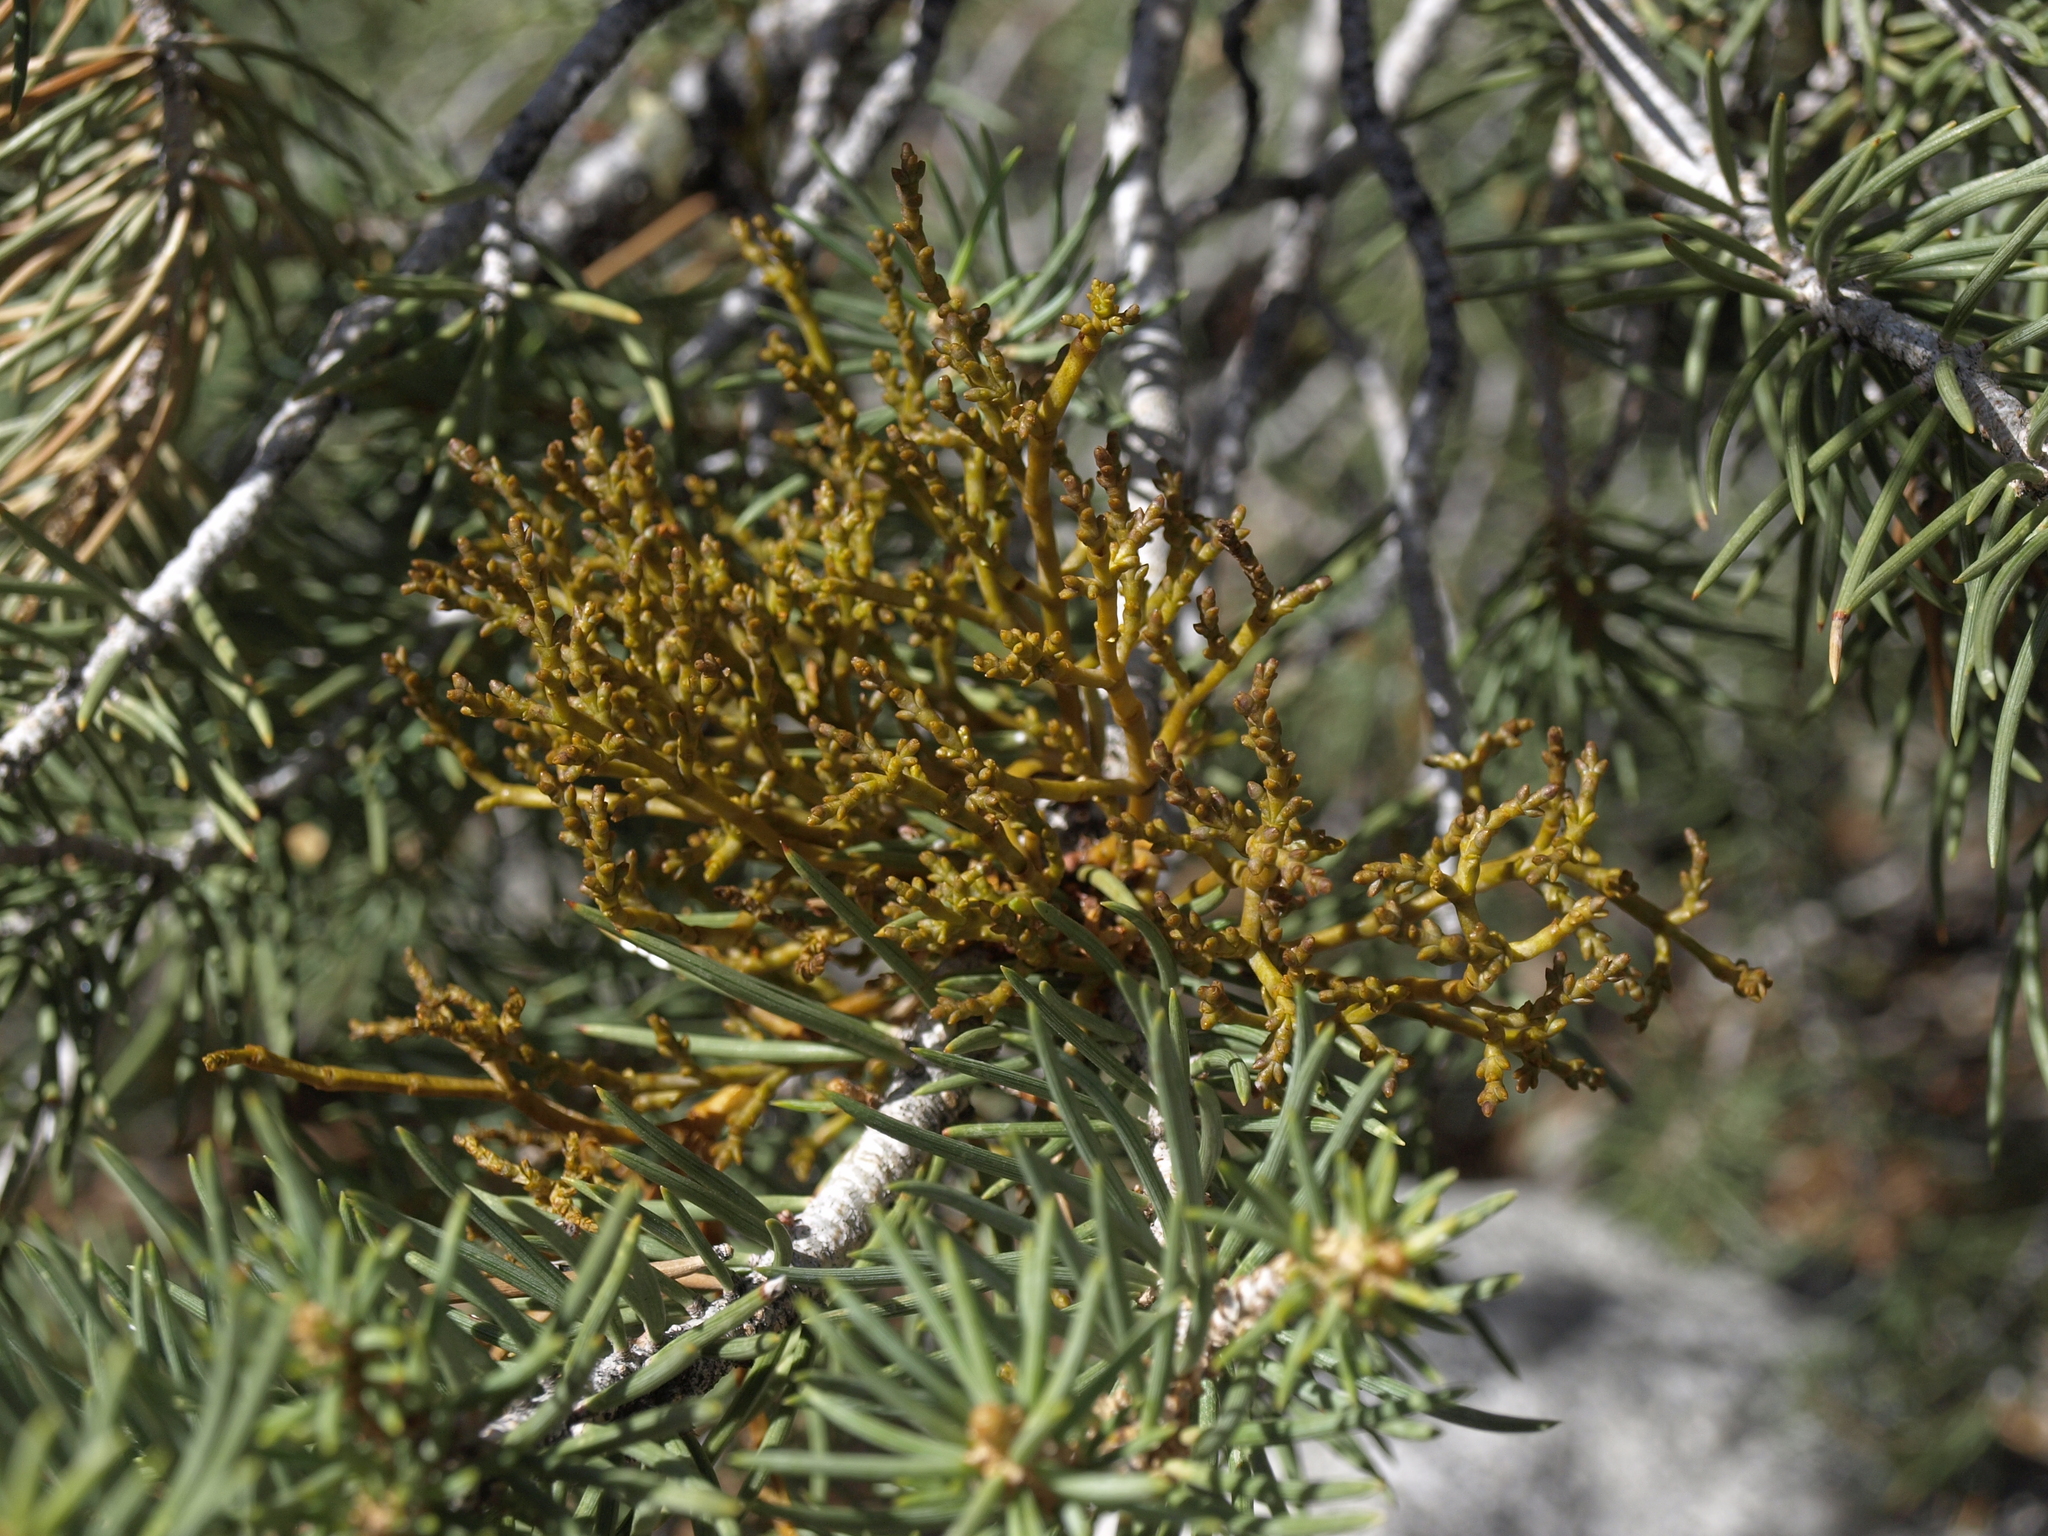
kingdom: Plantae
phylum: Tracheophyta
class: Pinopsida
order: Pinales
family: Pinaceae
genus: Pinus
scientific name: Pinus monophylla
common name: One-leaved nut pine
